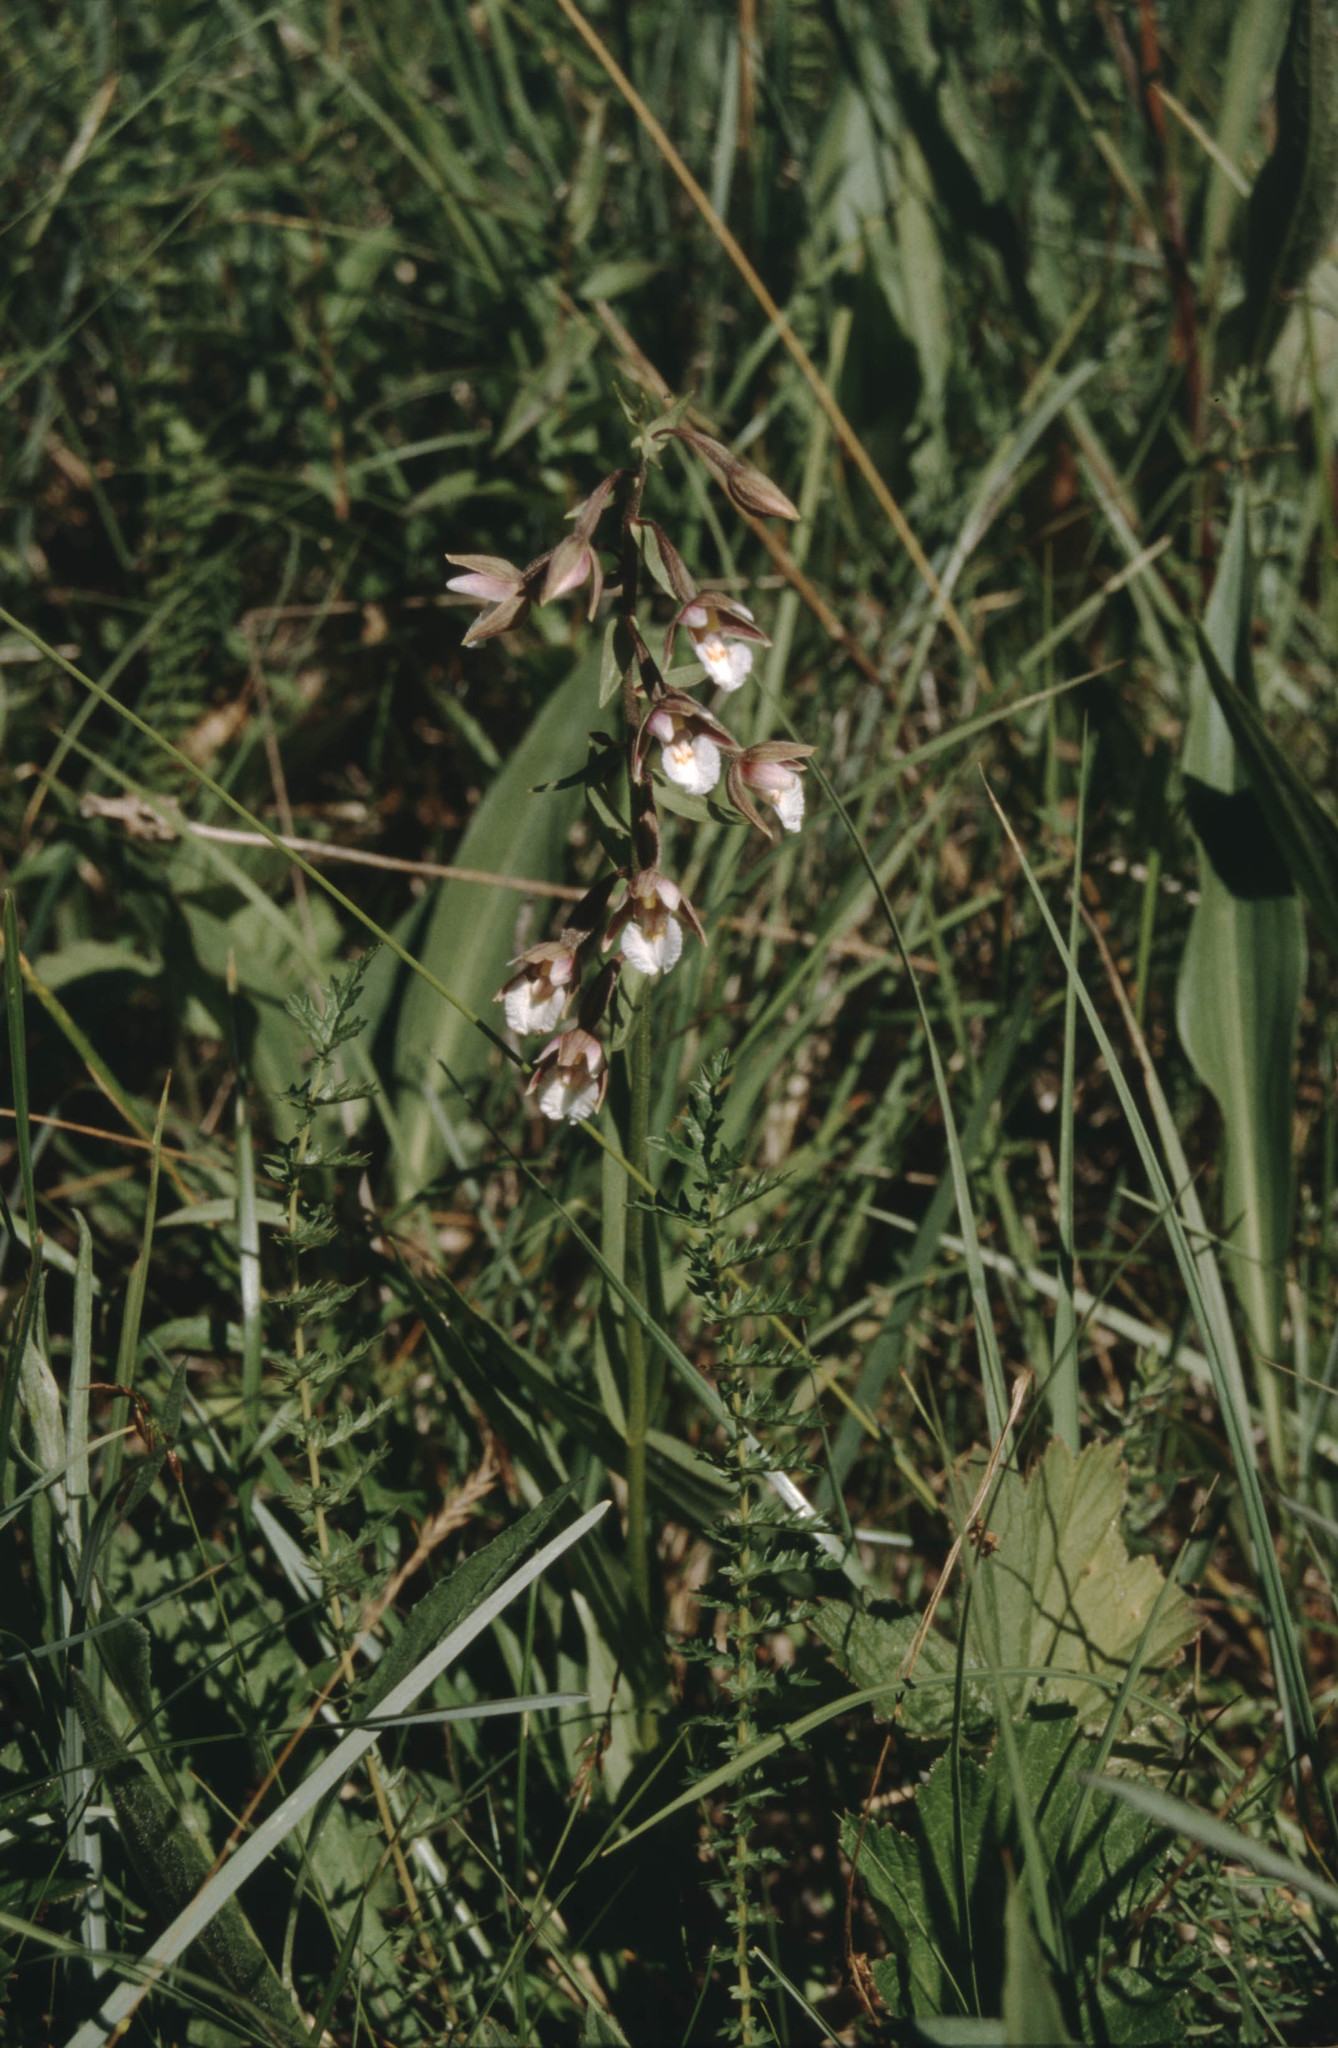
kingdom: Plantae
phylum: Tracheophyta
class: Liliopsida
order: Asparagales
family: Orchidaceae
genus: Epipactis
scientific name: Epipactis palustris
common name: Marsh helleborine
